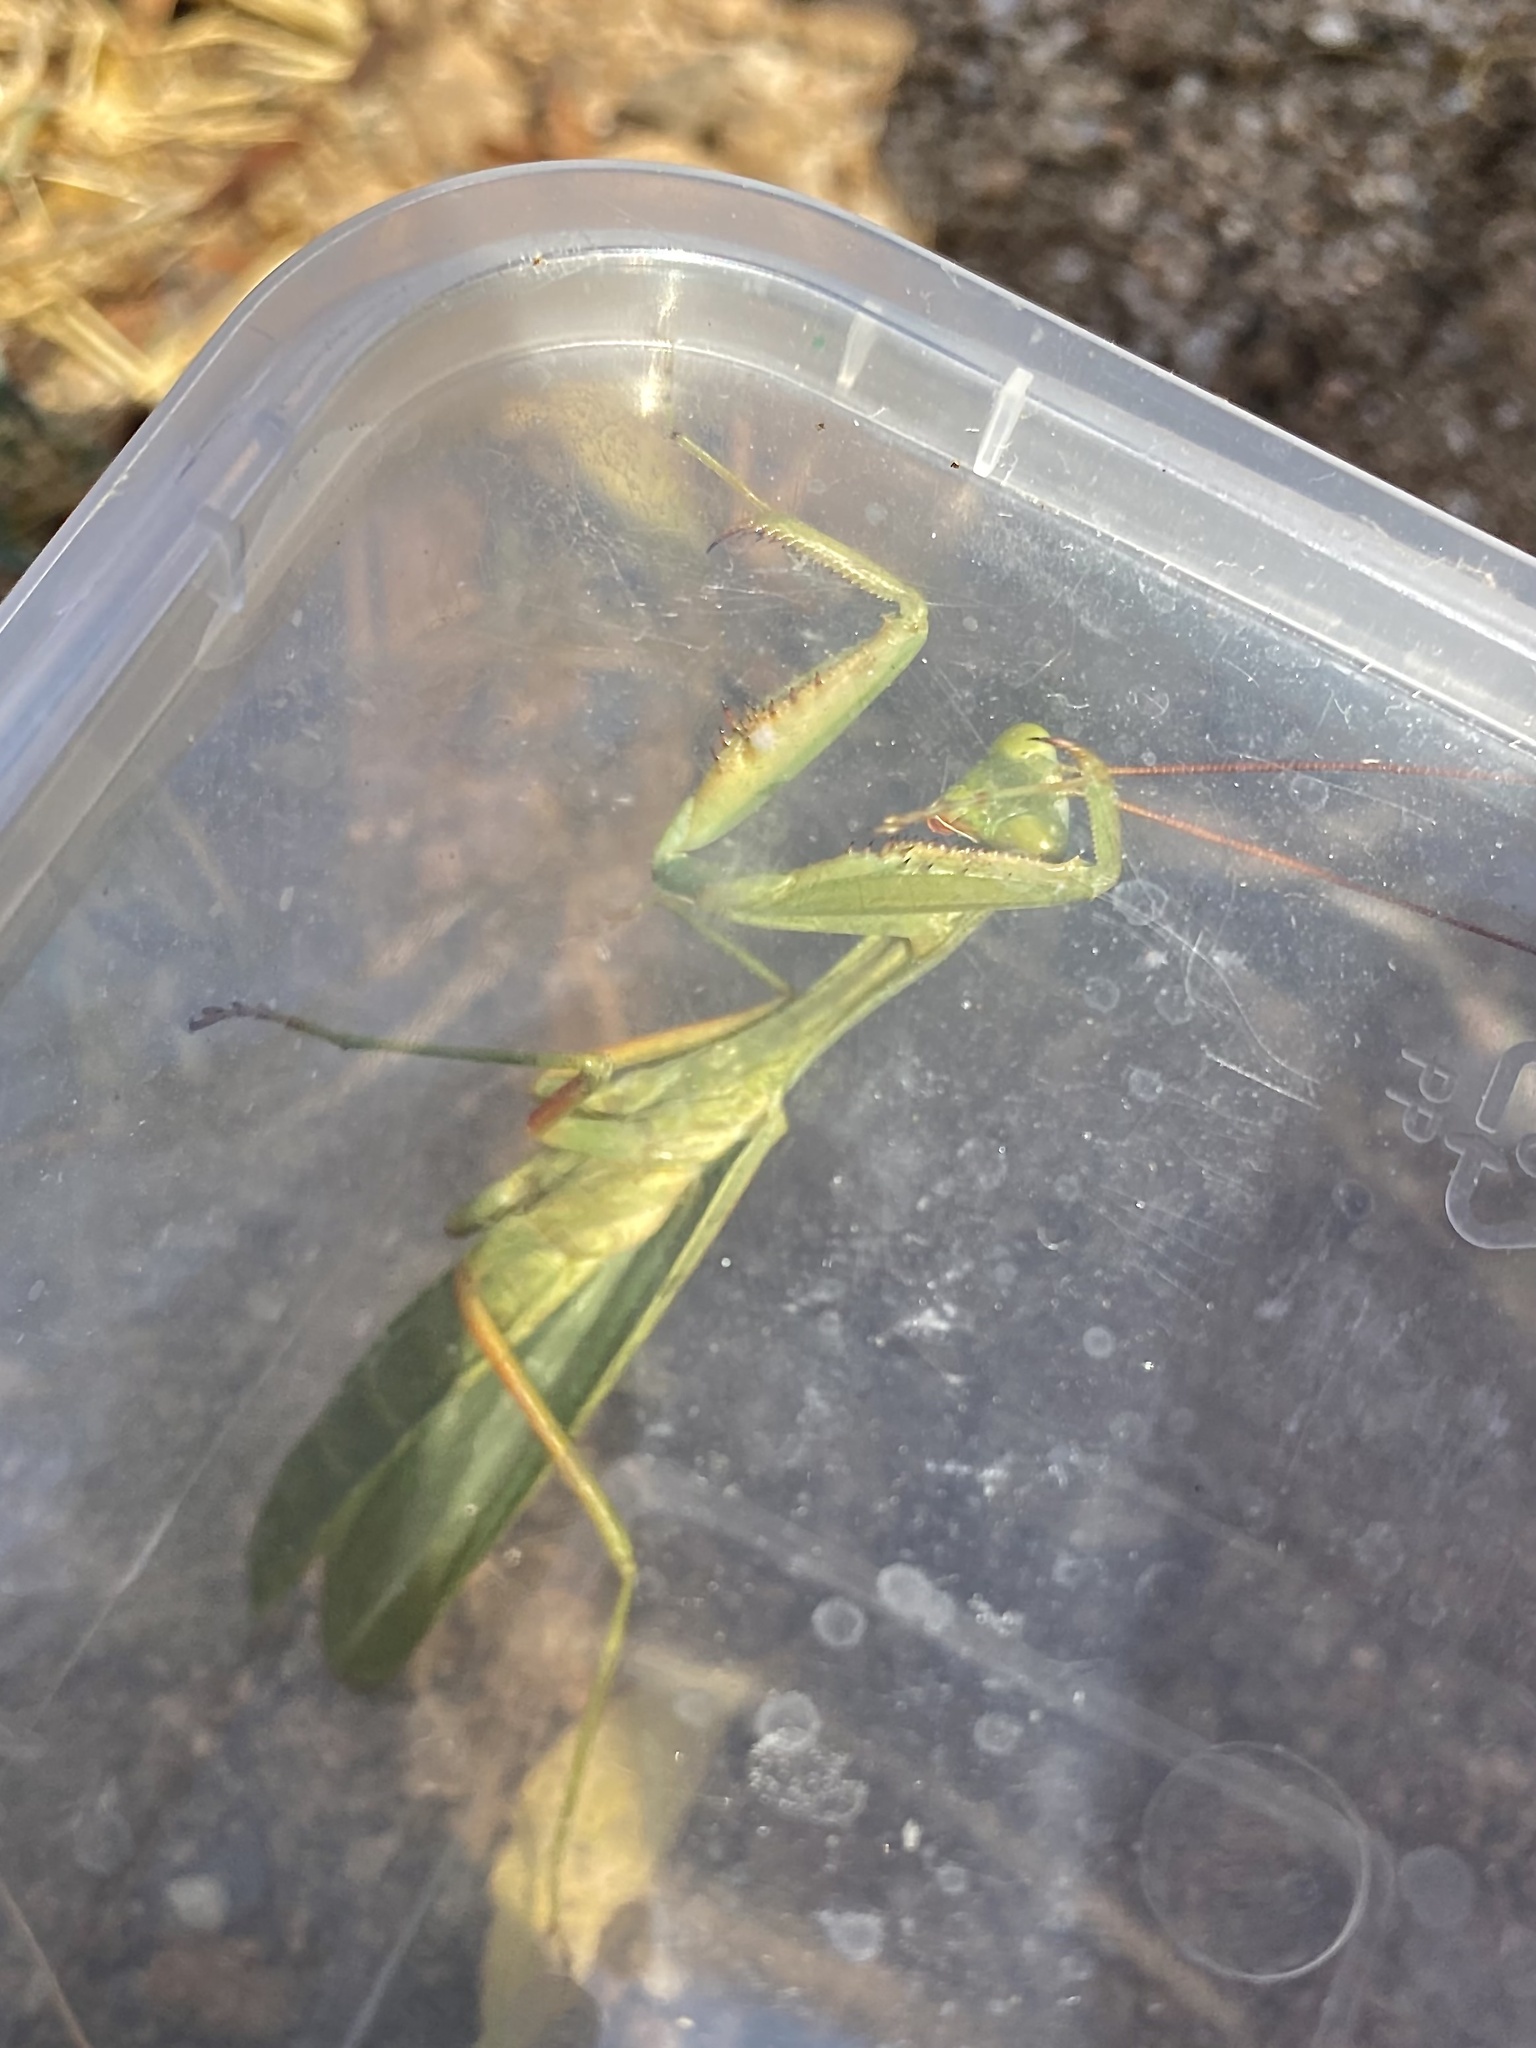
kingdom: Animalia
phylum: Arthropoda
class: Insecta
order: Mantodea
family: Mantidae
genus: Trachymantis
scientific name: Trachymantis dentifrons
